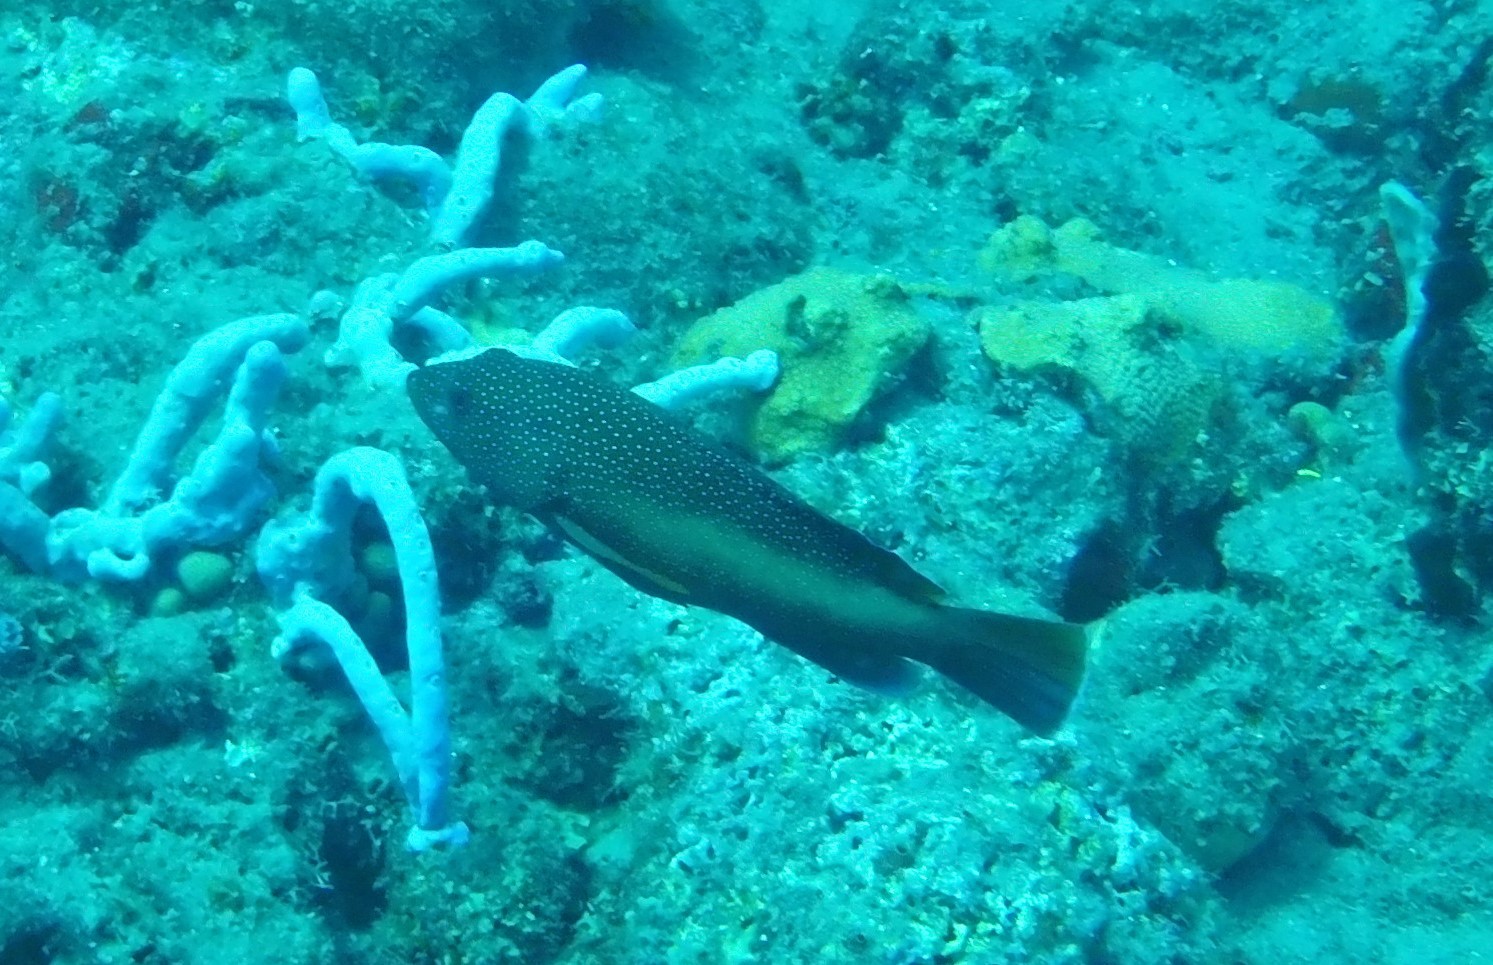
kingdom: Animalia
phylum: Chordata
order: Perciformes
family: Serranidae
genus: Cephalopholis
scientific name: Cephalopholis fulva
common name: Butterfish
